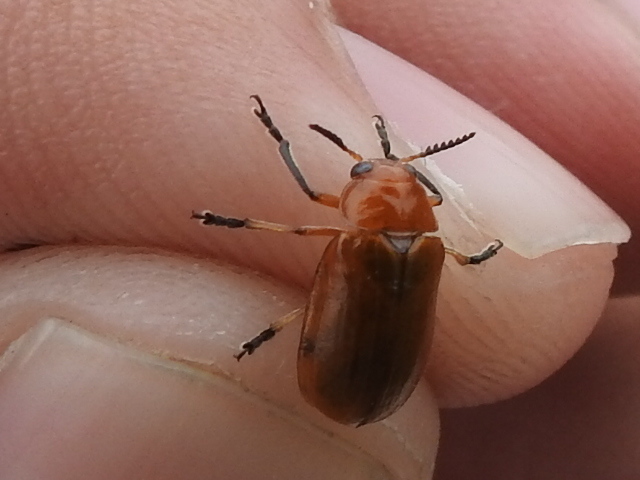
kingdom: Animalia
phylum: Arthropoda
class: Insecta
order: Coleoptera
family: Chrysomelidae
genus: Anomoea
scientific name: Anomoea laticlavia
